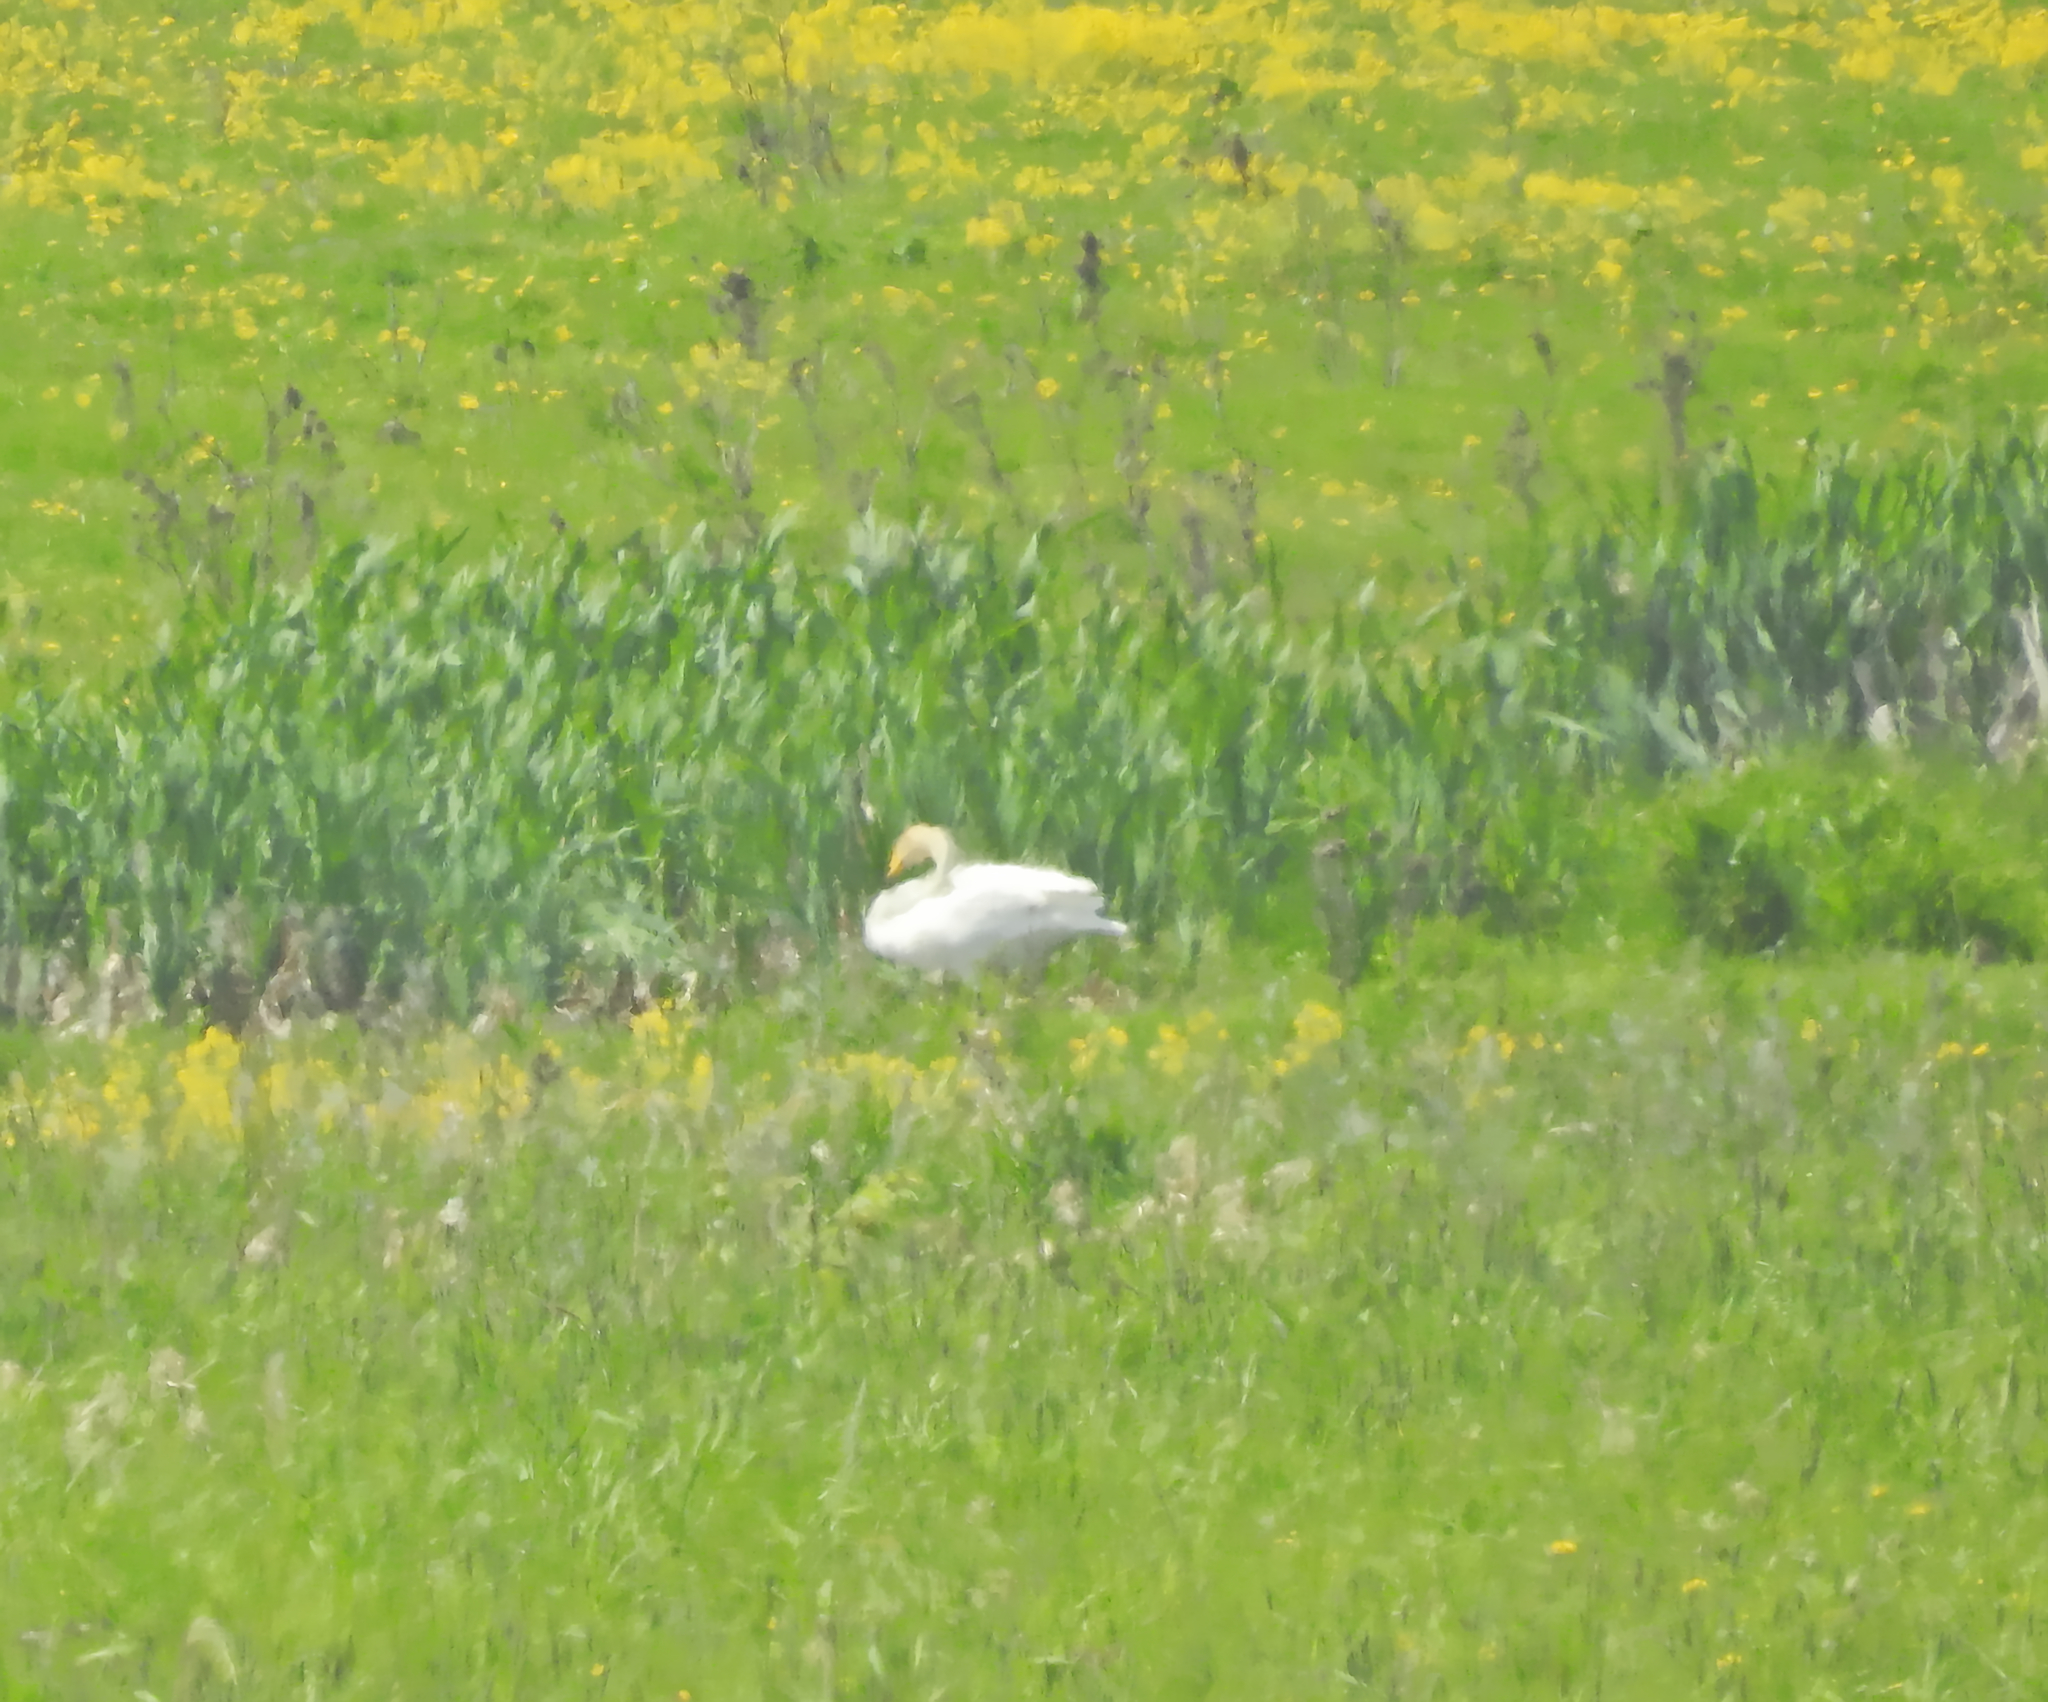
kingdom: Animalia
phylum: Chordata
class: Aves
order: Anseriformes
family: Anatidae
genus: Cygnus
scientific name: Cygnus cygnus
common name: Whooper swan
